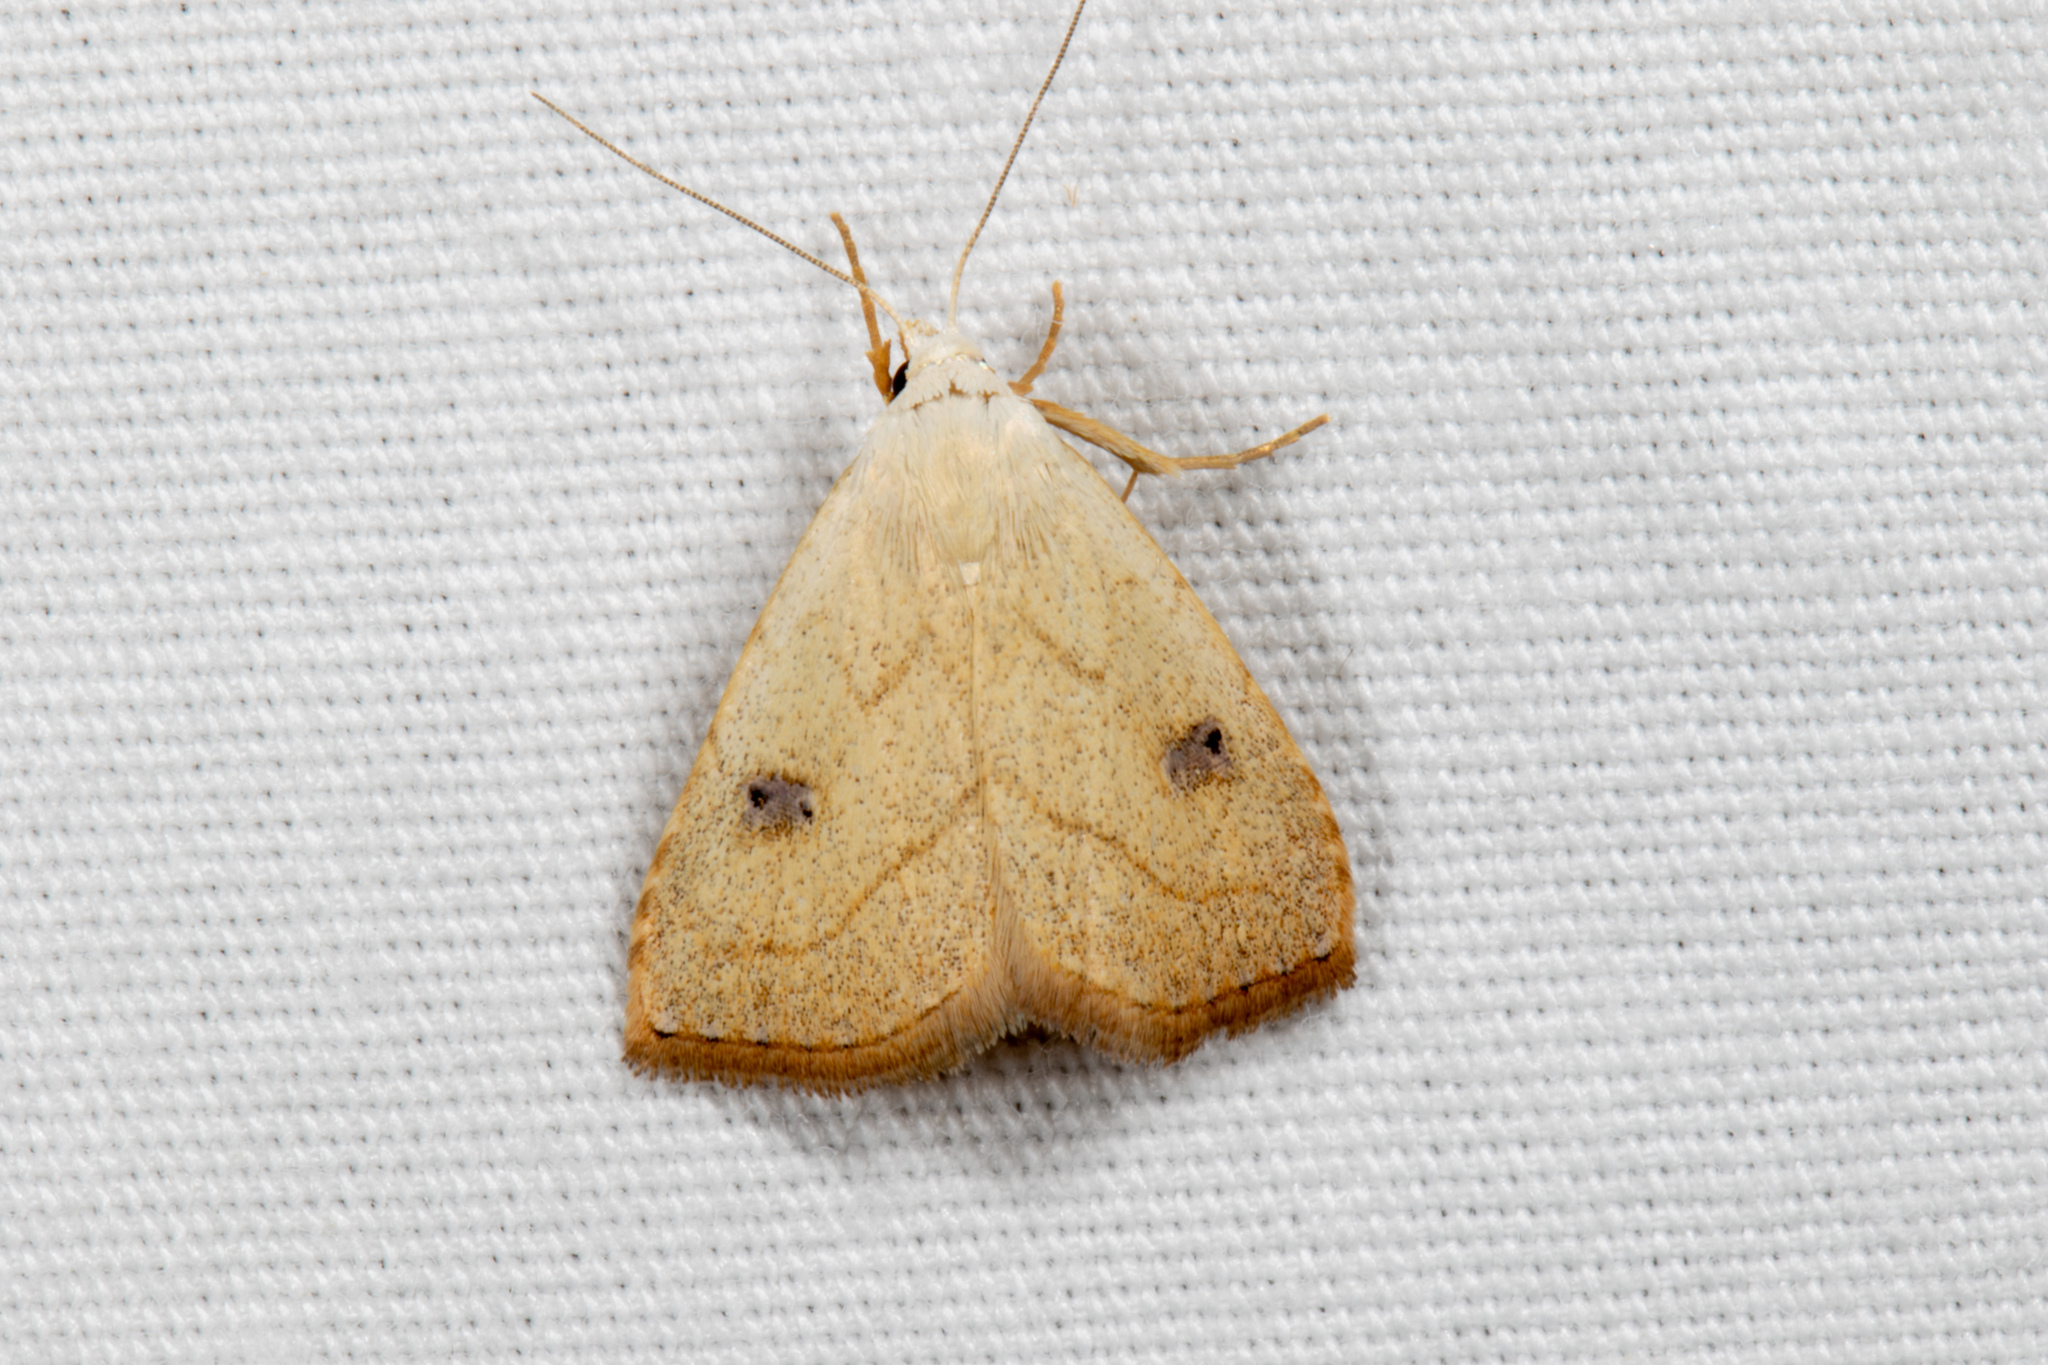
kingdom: Animalia
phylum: Arthropoda
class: Insecta
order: Lepidoptera
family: Erebidae
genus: Rivula
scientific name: Rivula propinqualis
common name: Spotted grass moth
